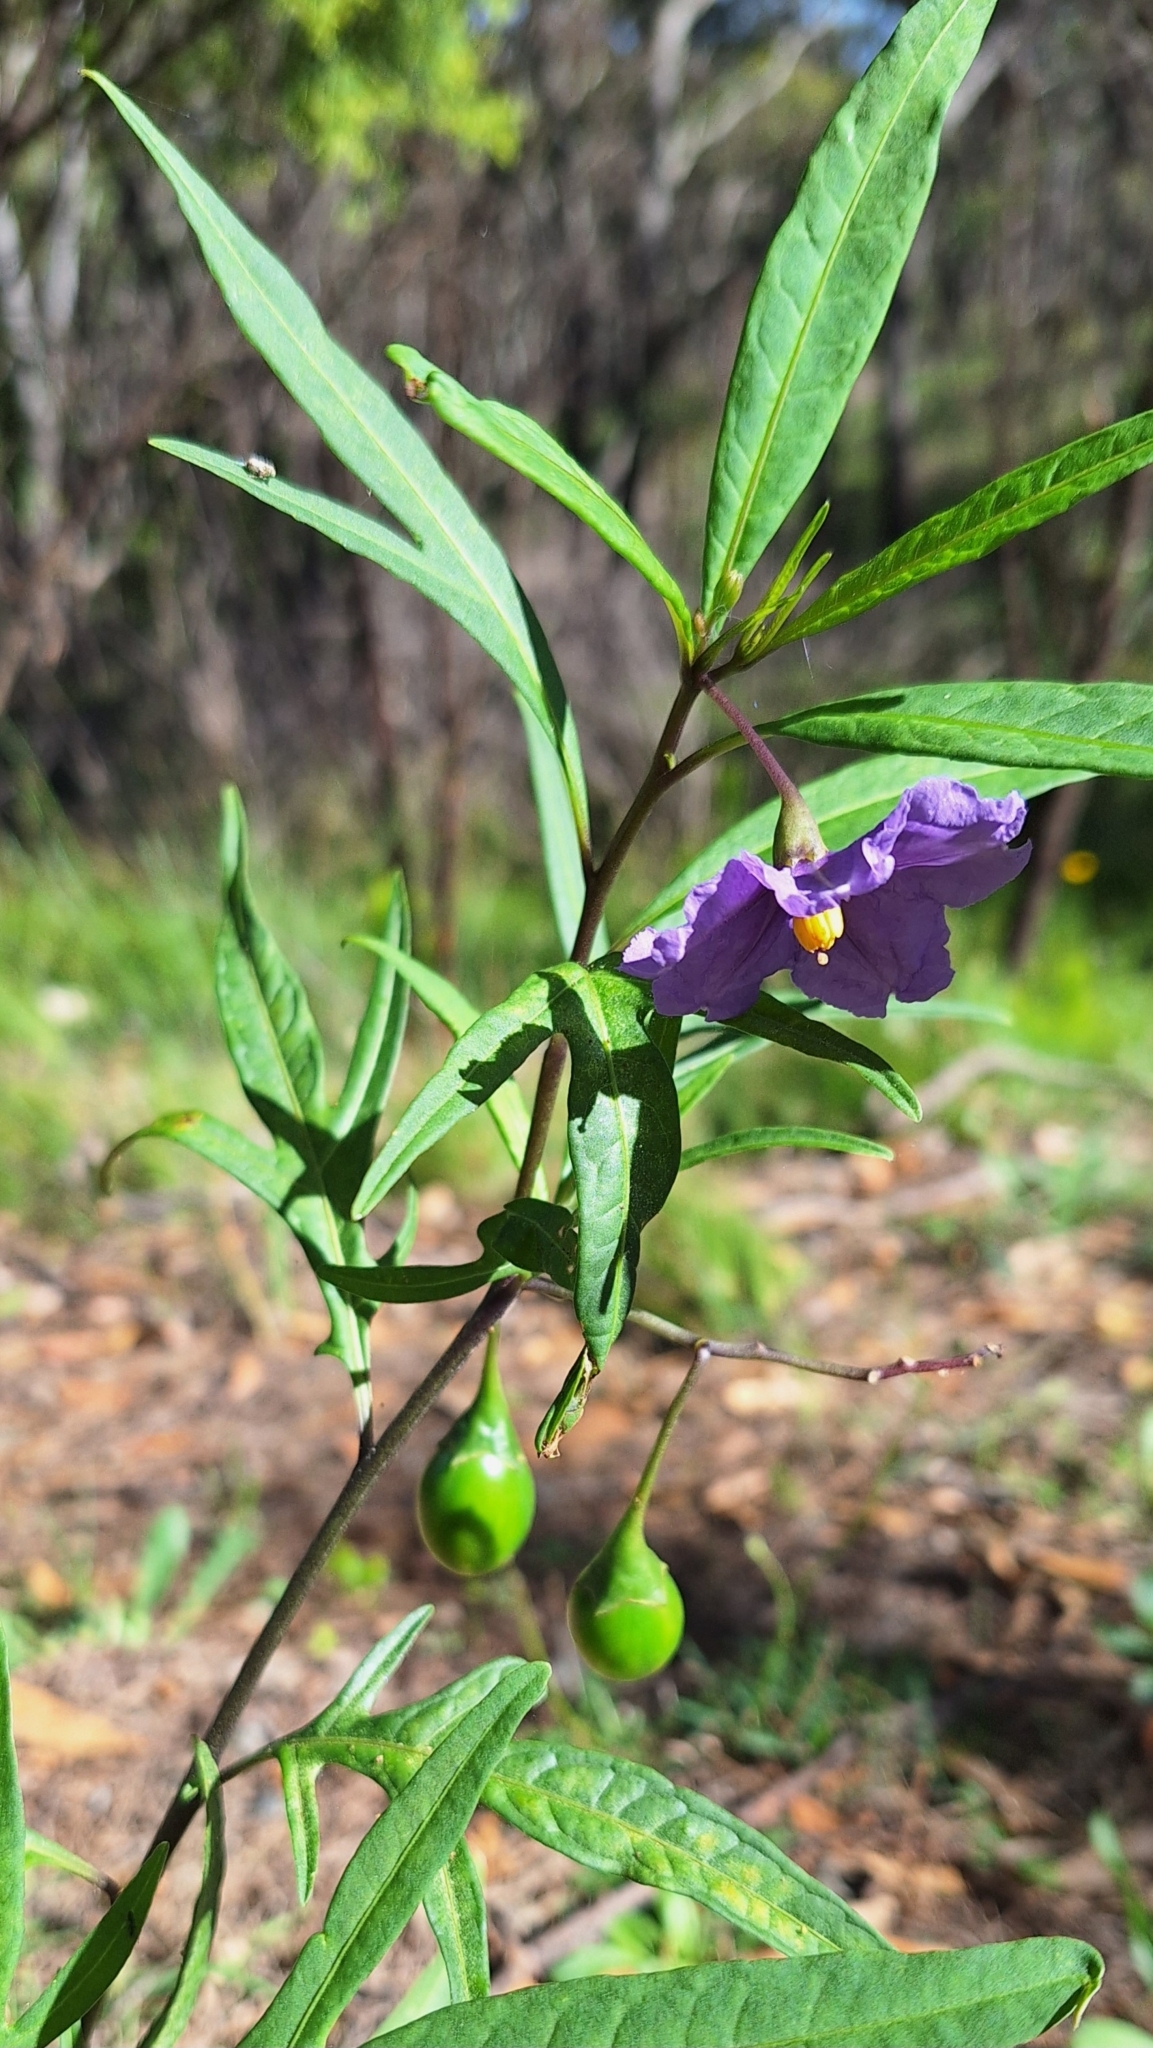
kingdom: Plantae
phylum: Tracheophyta
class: Magnoliopsida
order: Solanales
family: Solanaceae
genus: Solanum
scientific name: Solanum laciniatum
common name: Kangaroo-apple
